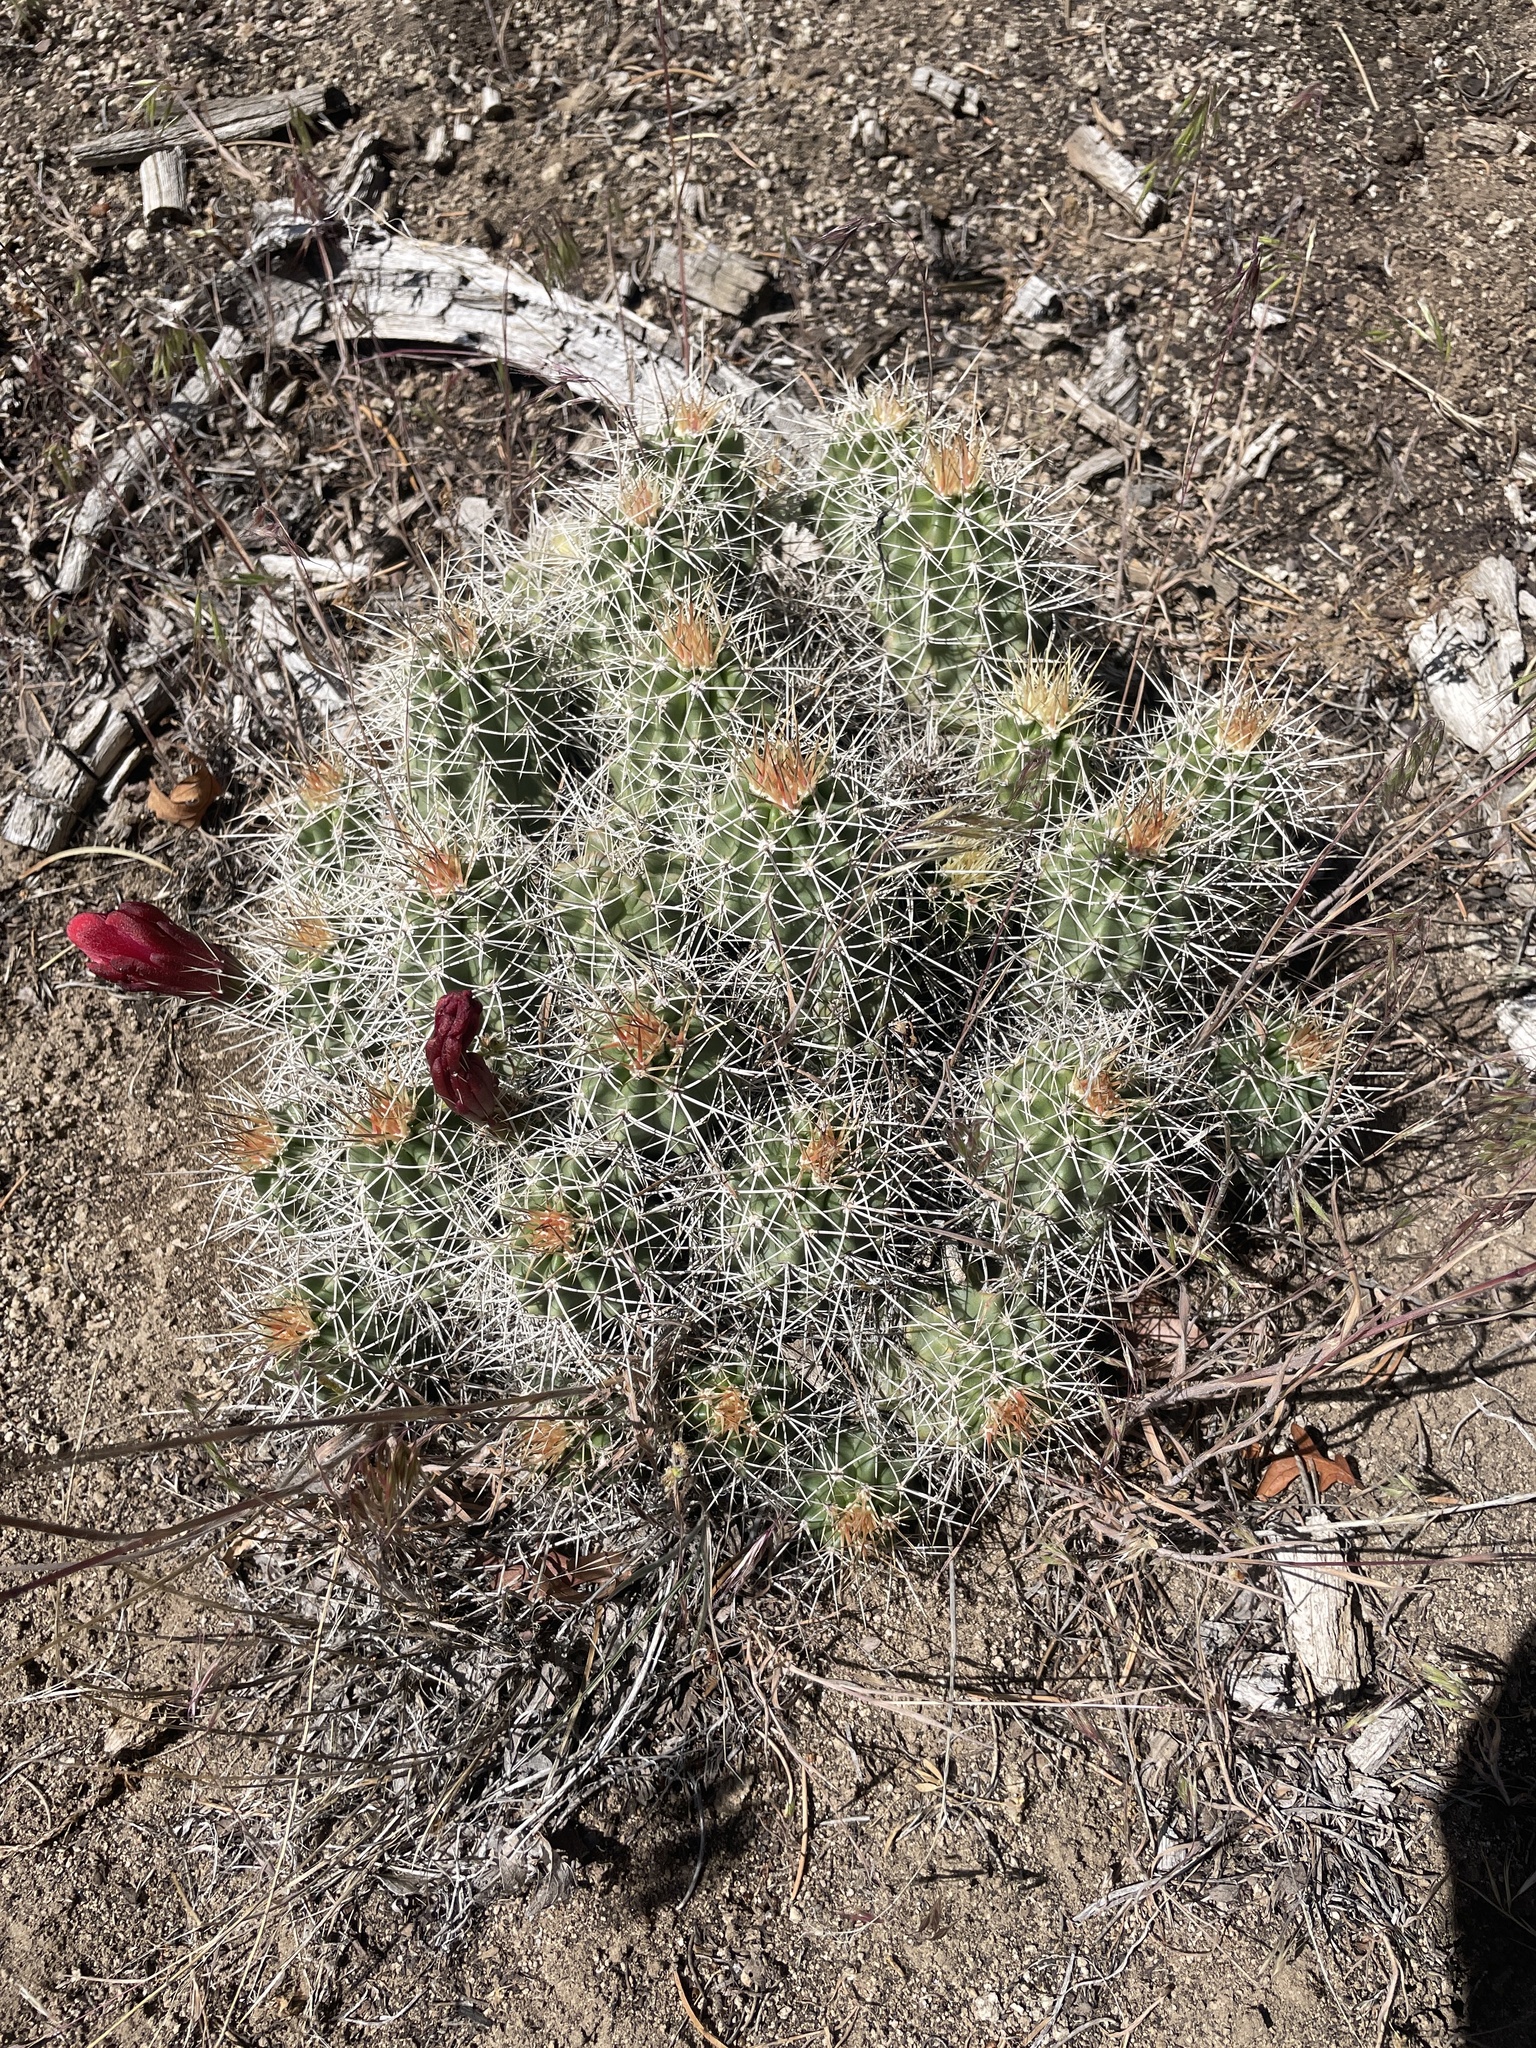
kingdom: Plantae
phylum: Tracheophyta
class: Magnoliopsida
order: Caryophyllales
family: Cactaceae
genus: Echinocereus
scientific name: Echinocereus triglochidiatus
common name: Claretcup hedgehog
